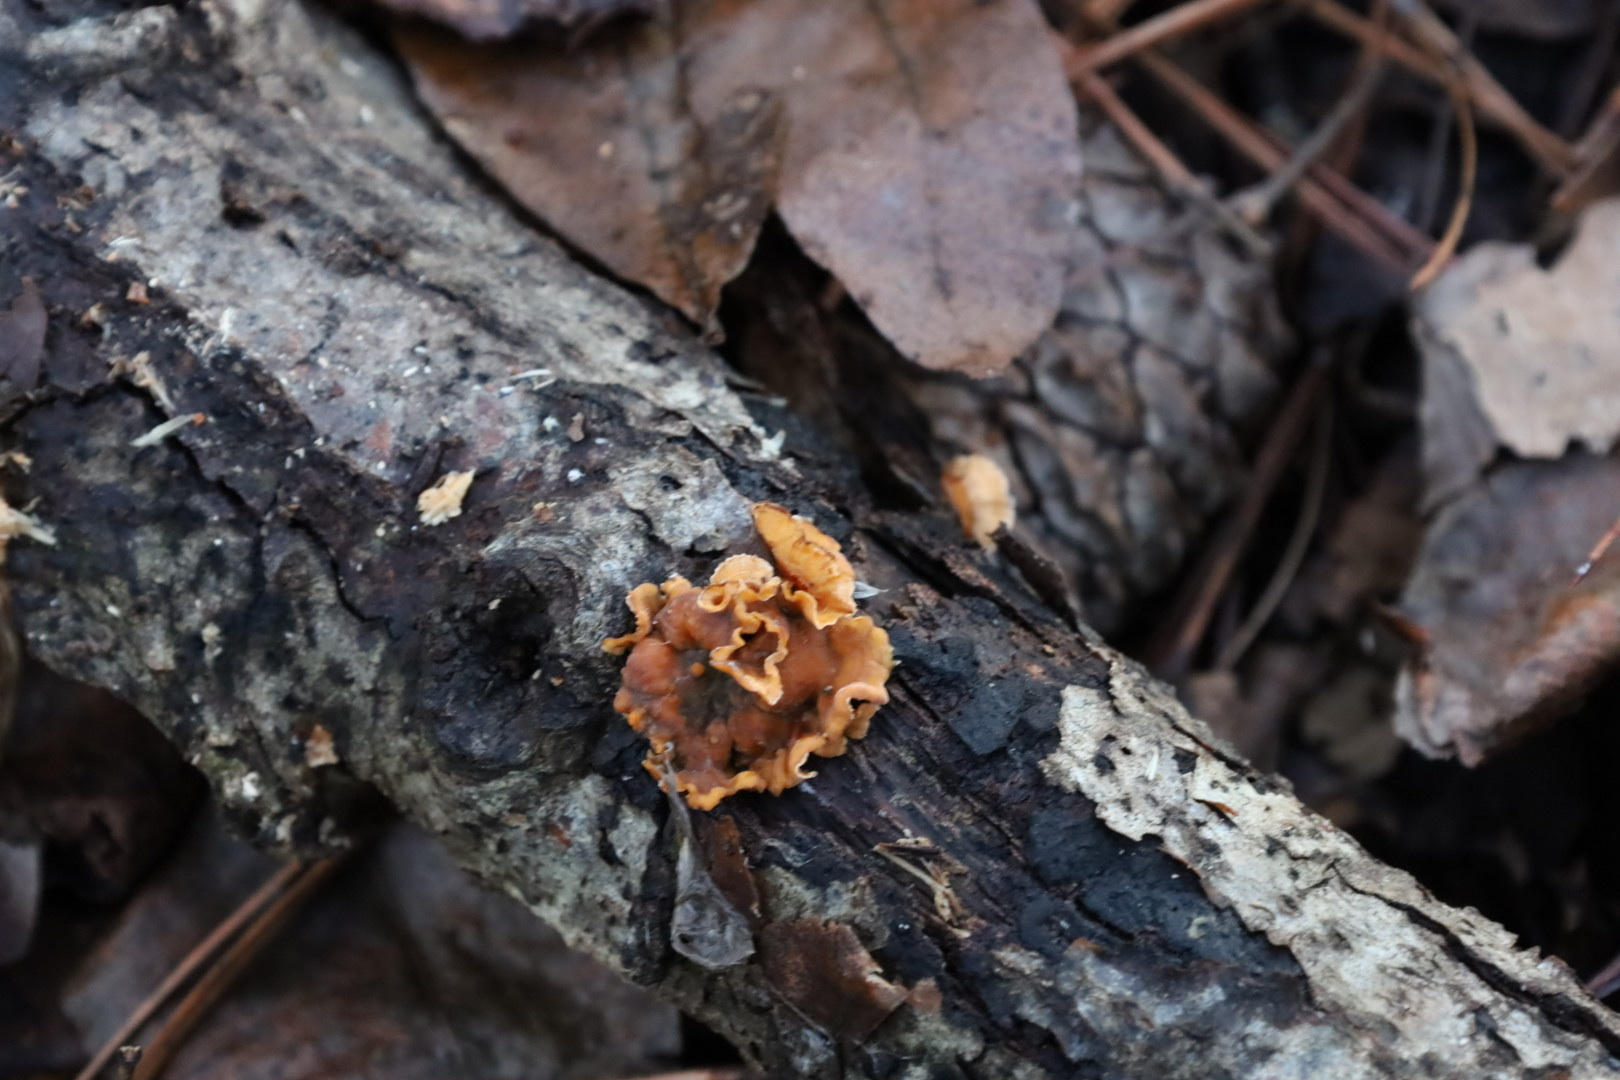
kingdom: Fungi
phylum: Basidiomycota
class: Agaricomycetes
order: Russulales
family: Stereaceae
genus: Stereum
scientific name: Stereum complicatum
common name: Crowded parchment
